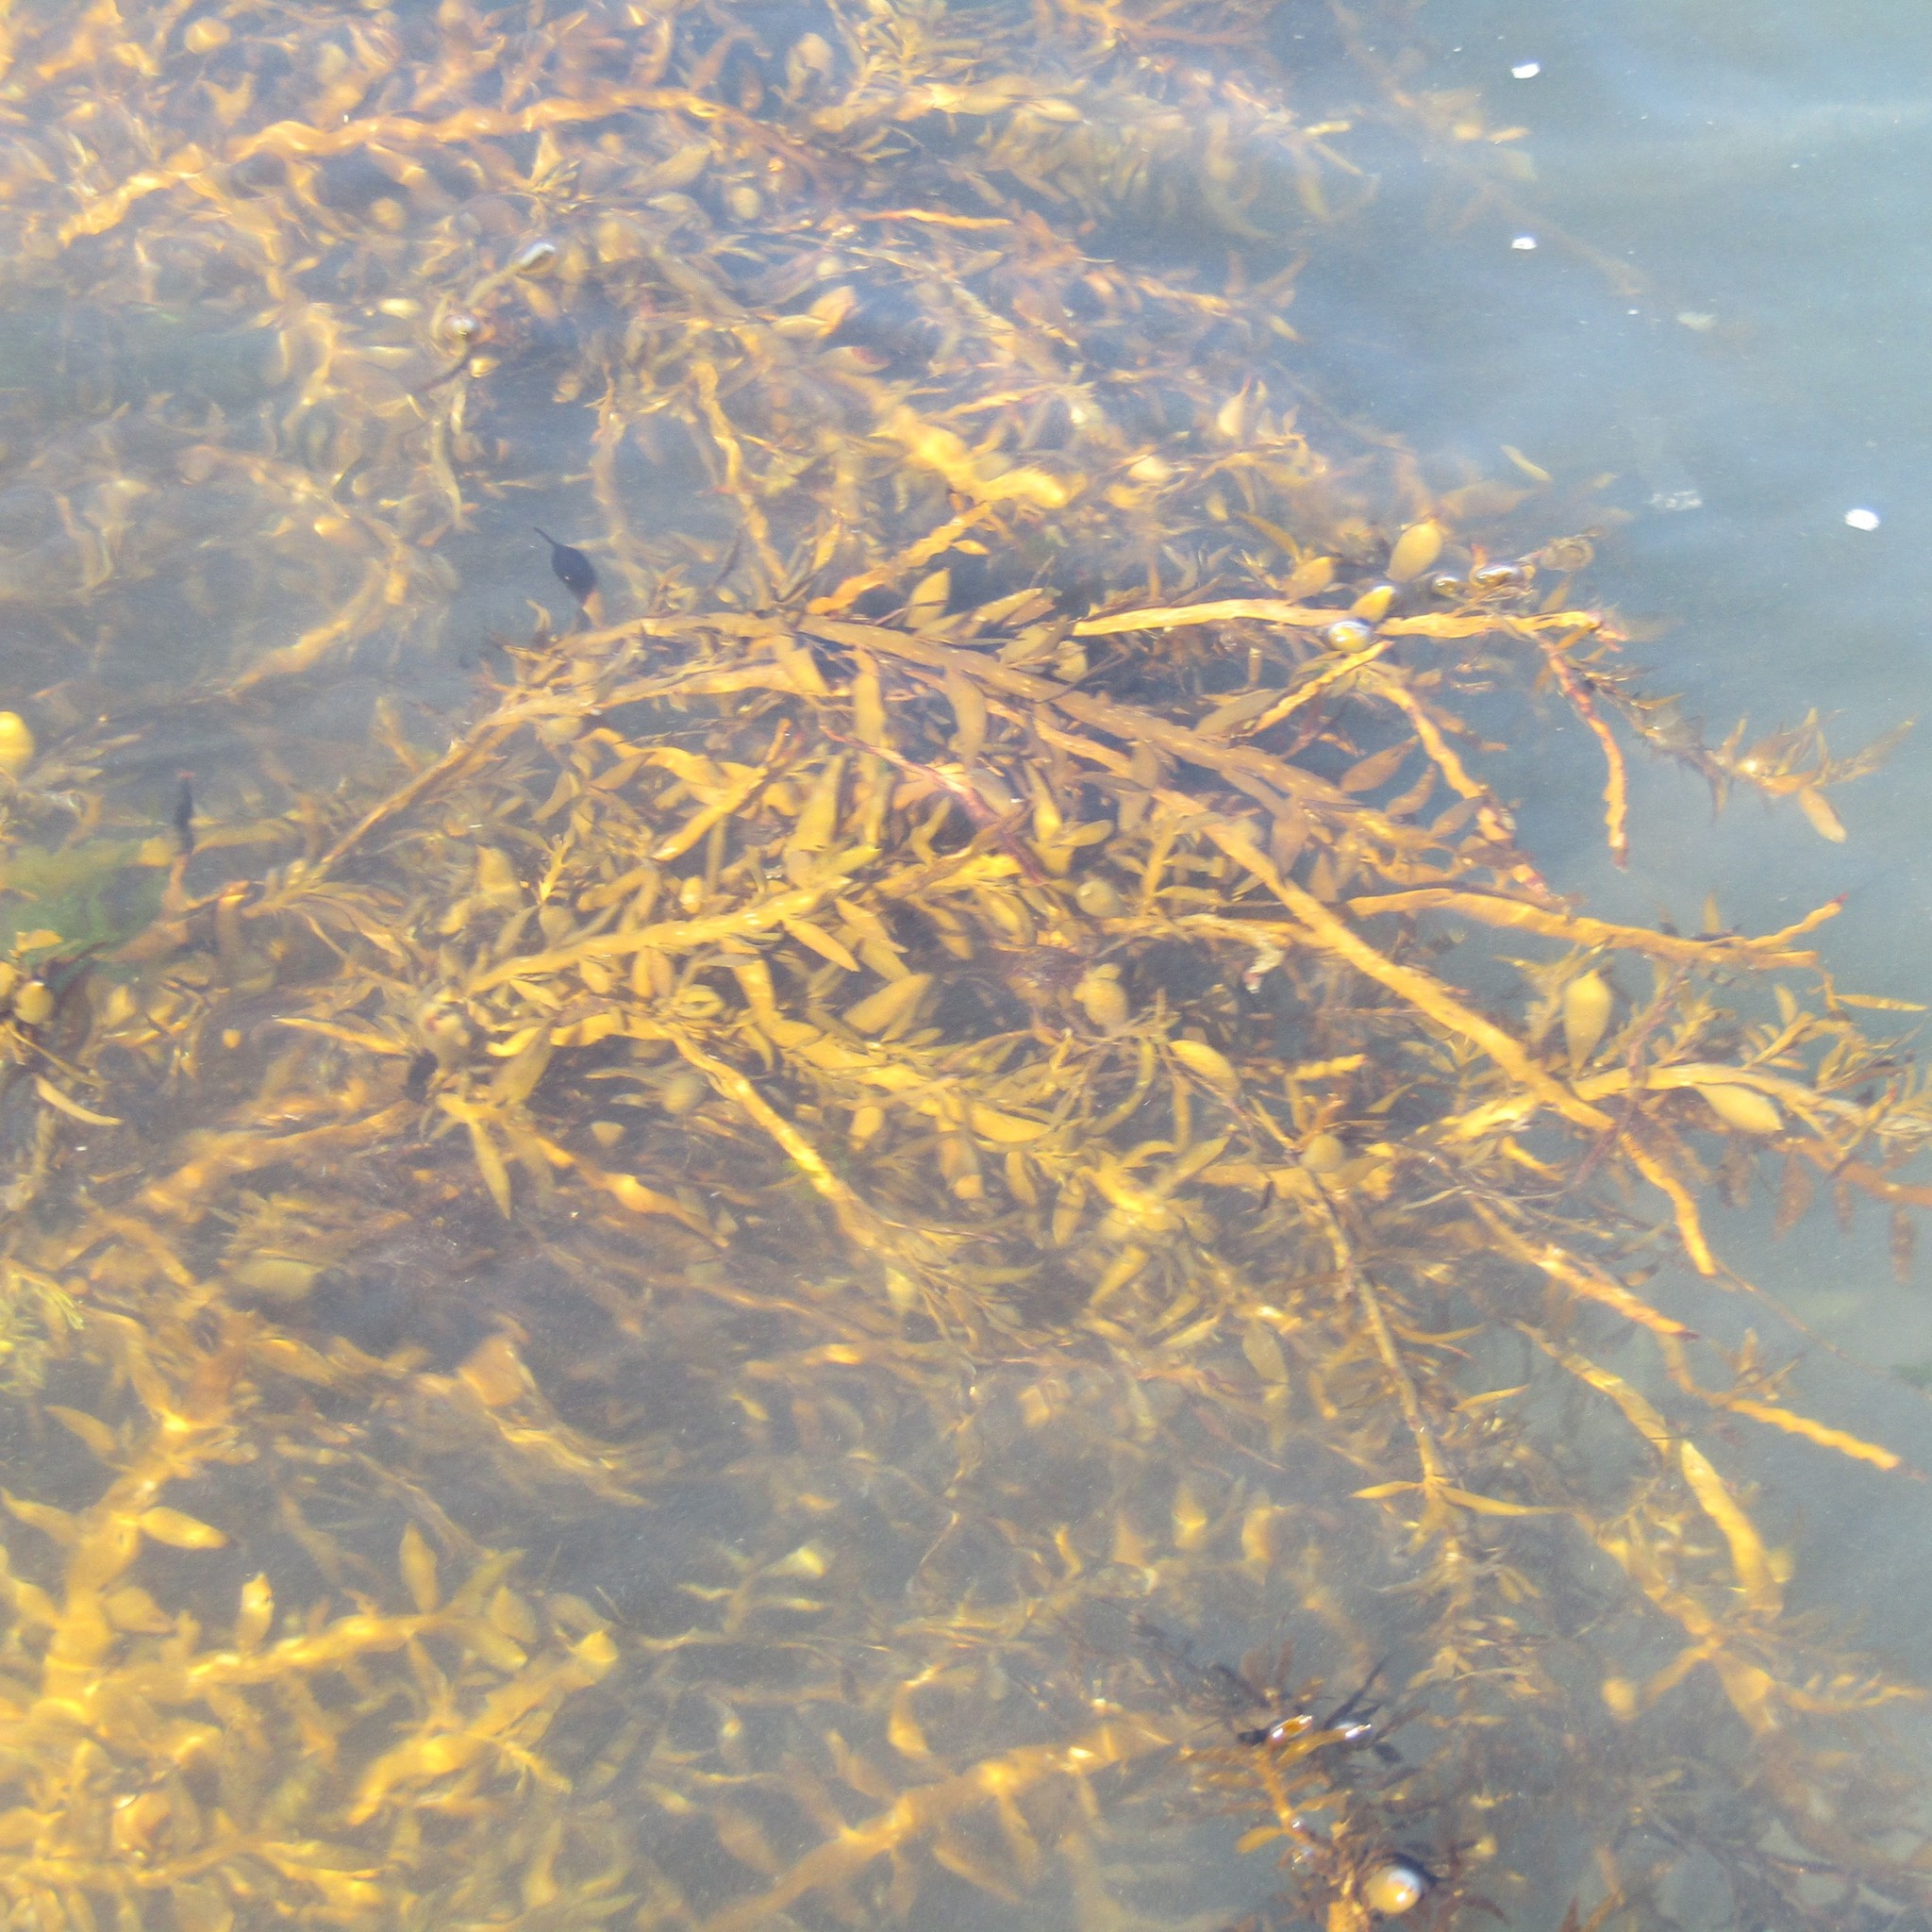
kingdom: Chromista
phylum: Ochrophyta
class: Phaeophyceae
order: Fucales
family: Sargassaceae
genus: Carpophyllum
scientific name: Carpophyllum maschalocarpum
